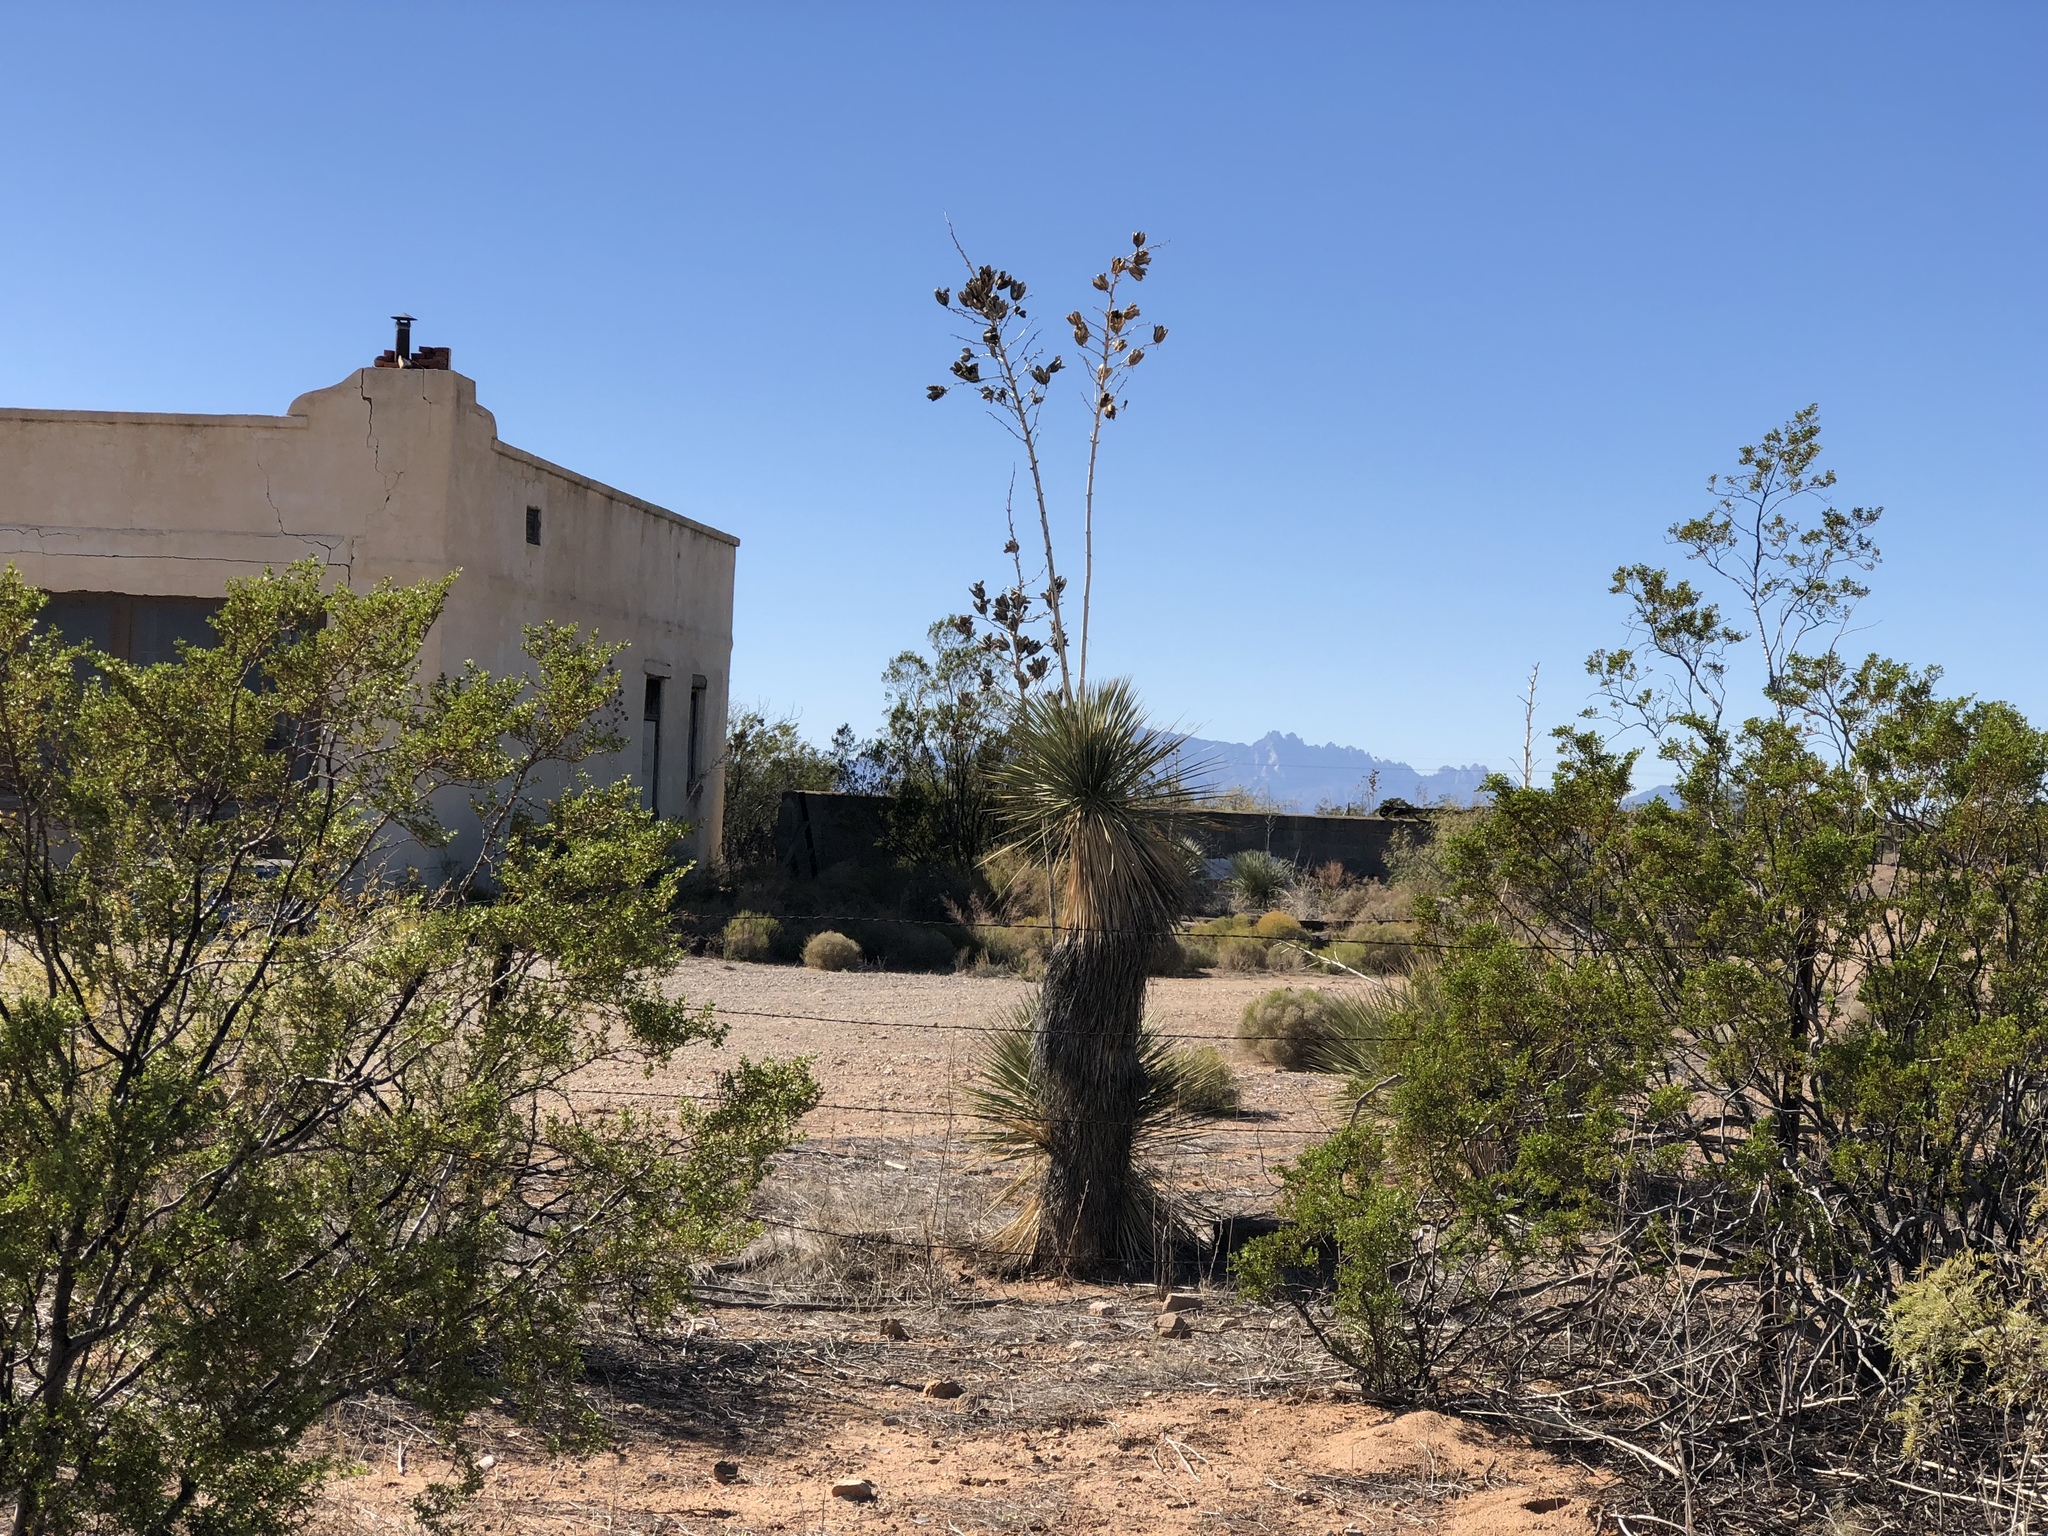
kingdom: Plantae
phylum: Tracheophyta
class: Liliopsida
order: Asparagales
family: Asparagaceae
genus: Yucca
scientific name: Yucca elata
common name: Palmella
